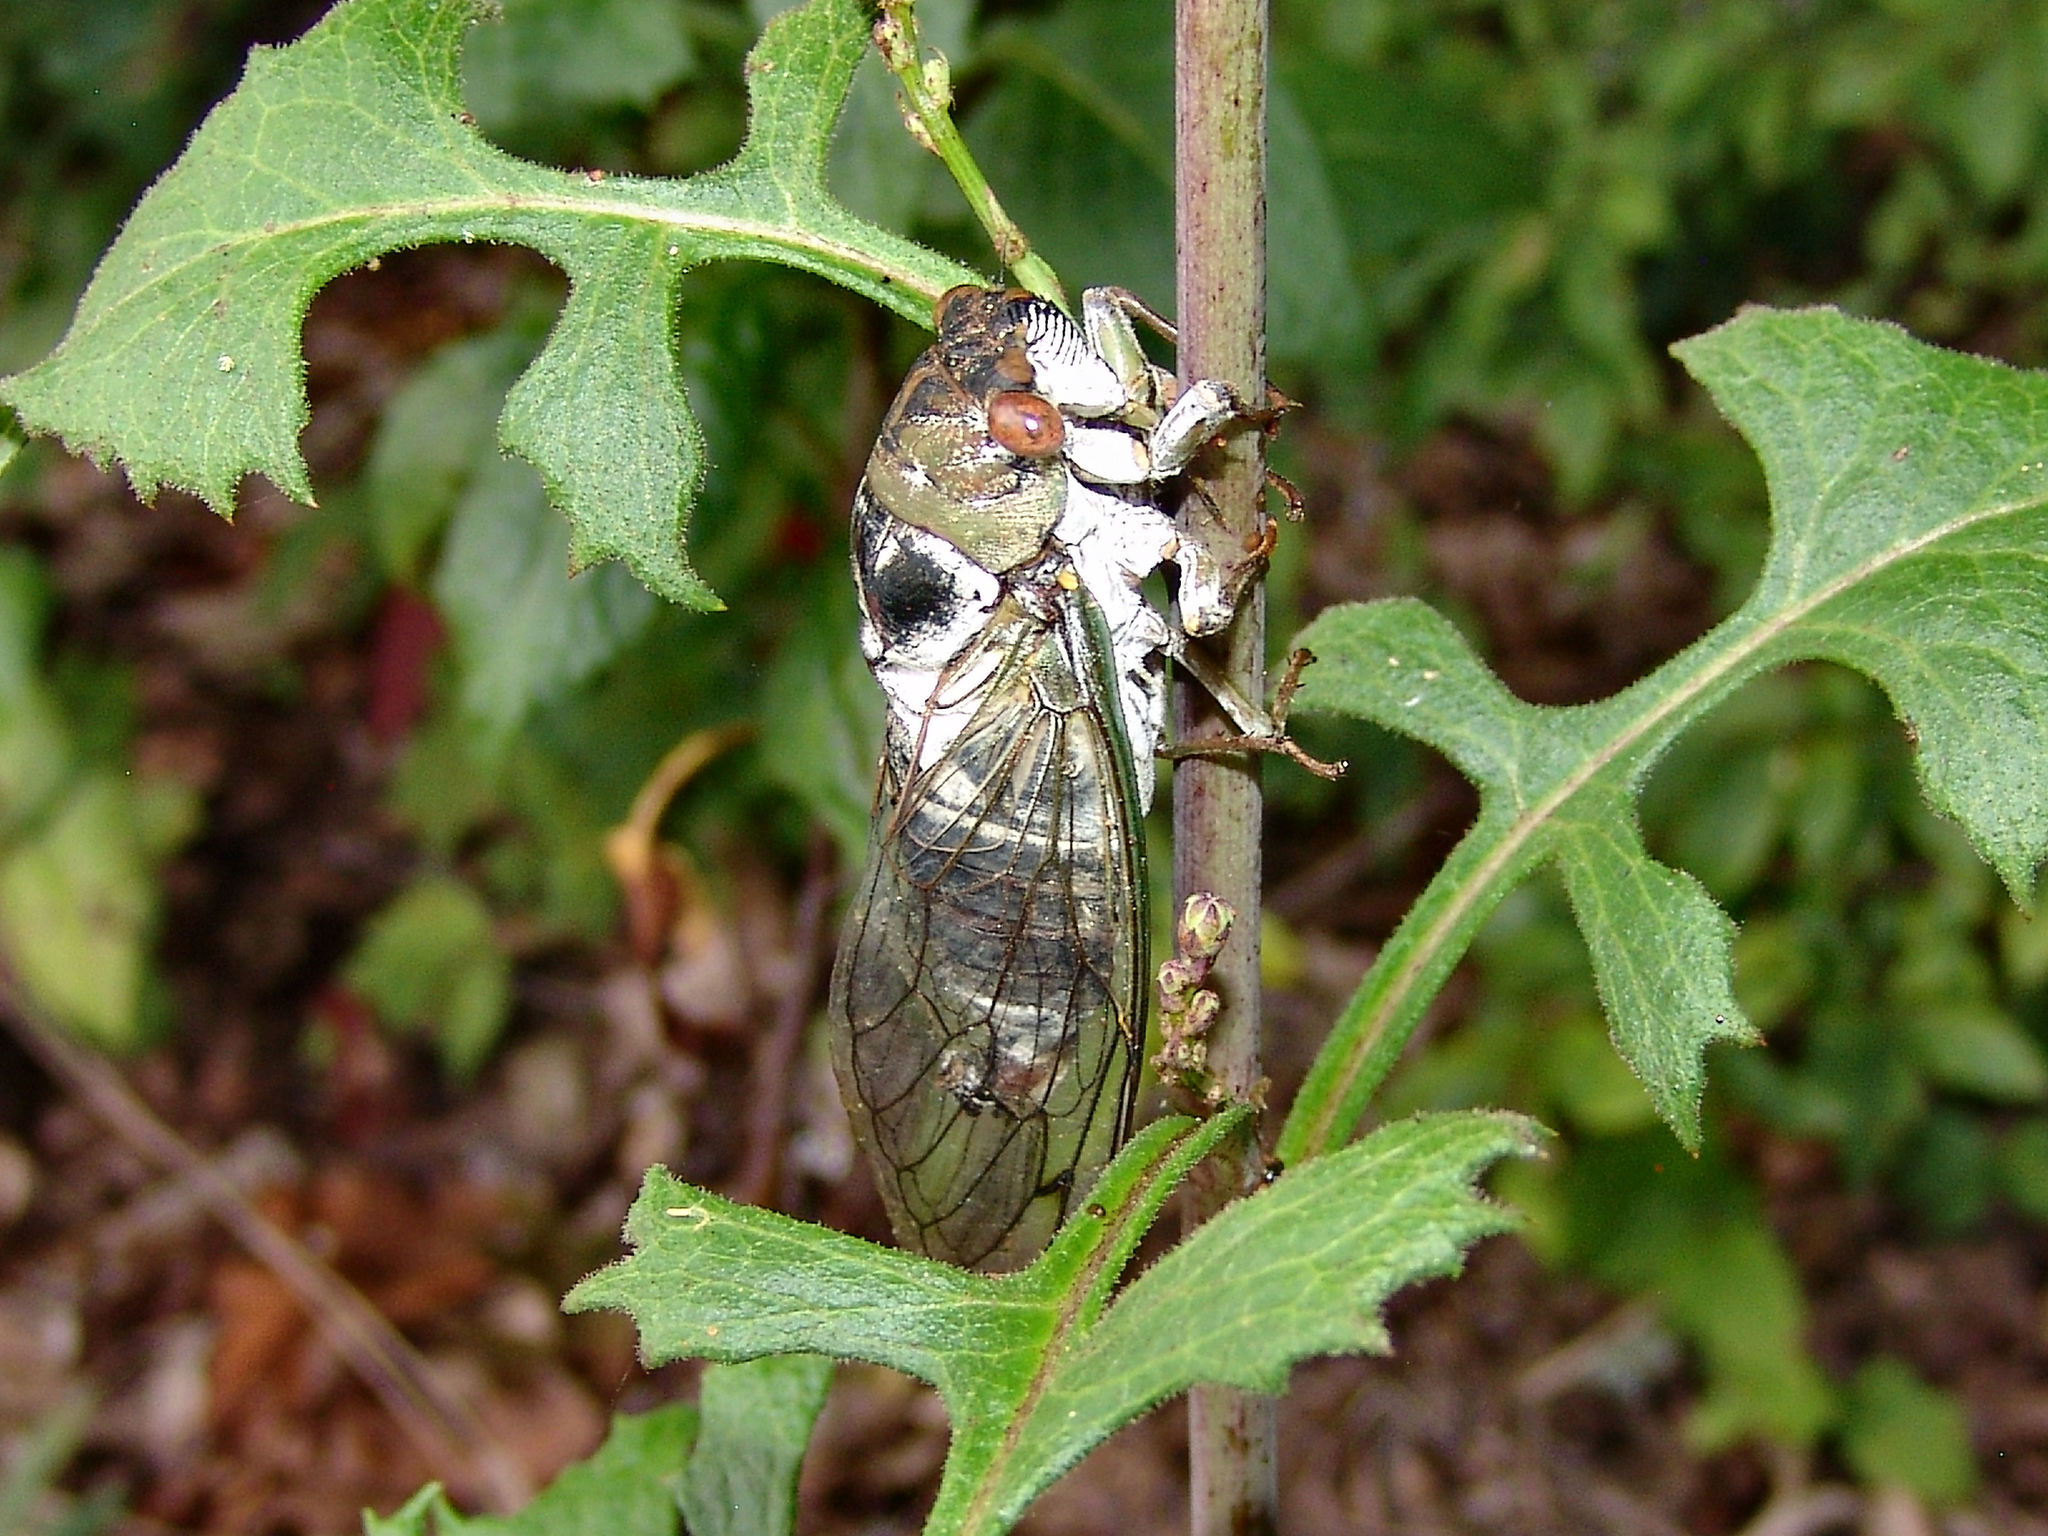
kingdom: Animalia
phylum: Arthropoda
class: Insecta
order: Hemiptera
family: Cicadidae
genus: Diceroprocta
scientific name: Diceroprocta grossa
